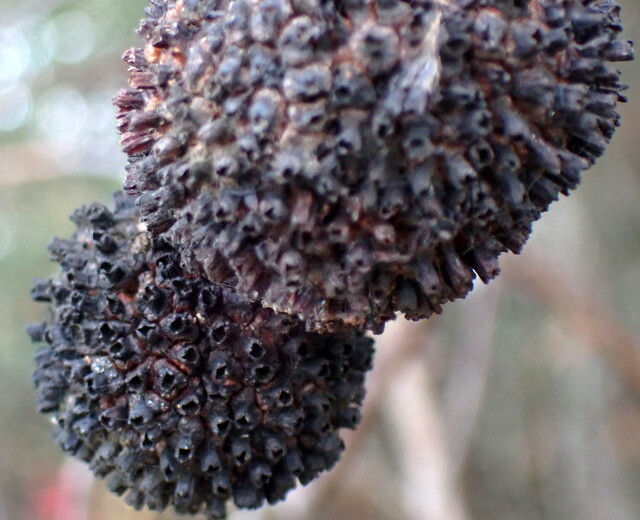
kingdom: Plantae
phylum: Tracheophyta
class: Magnoliopsida
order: Gentianales
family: Rubiaceae
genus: Cephalanthus
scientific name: Cephalanthus occidentalis
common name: Button-willow
